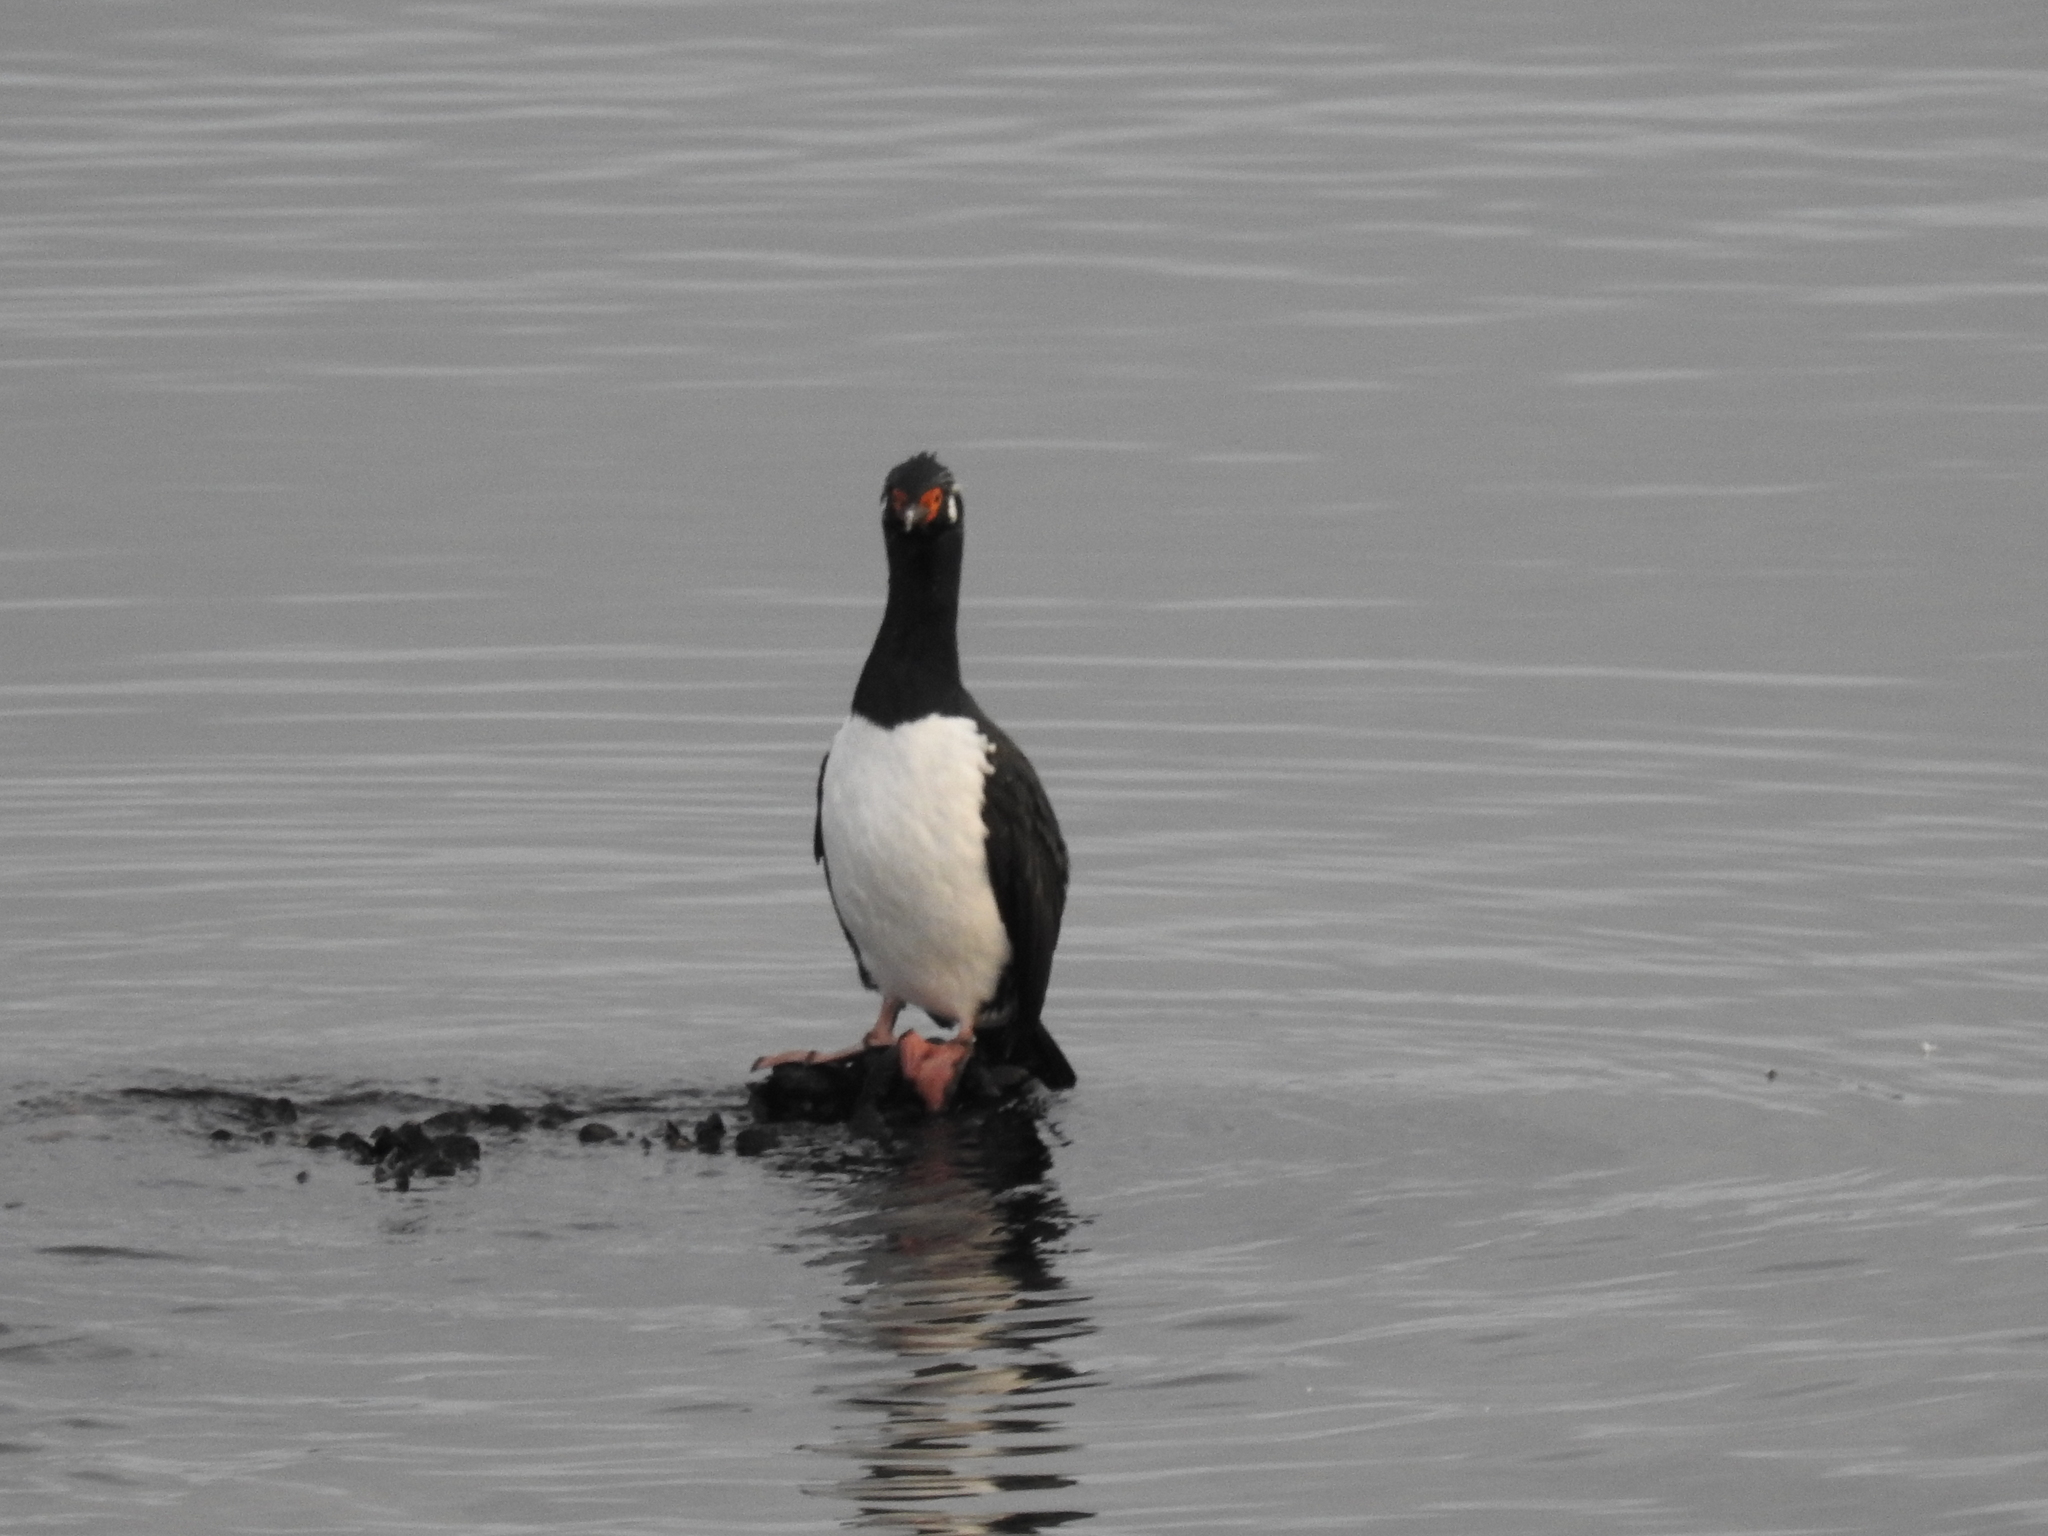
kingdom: Animalia
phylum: Chordata
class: Aves
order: Suliformes
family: Phalacrocoracidae
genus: Phalacrocorax
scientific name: Phalacrocorax magellanicus
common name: Rock shag
